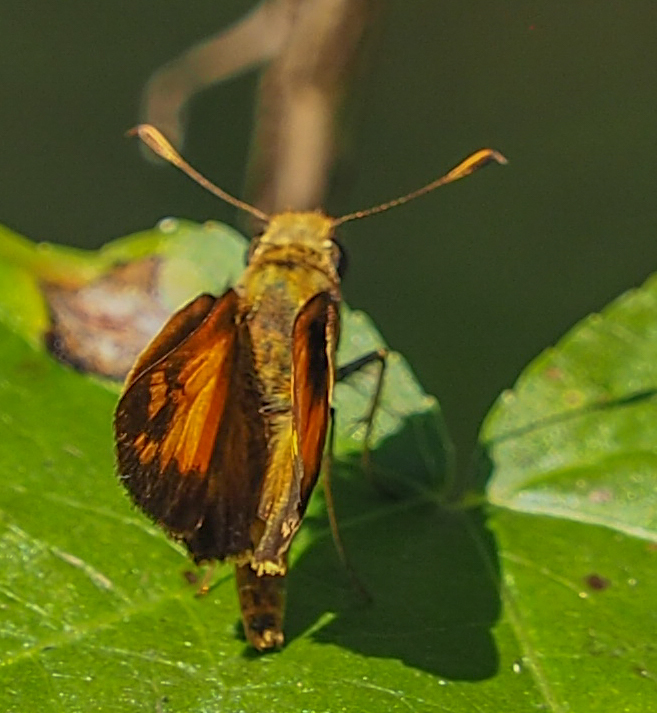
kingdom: Animalia
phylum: Arthropoda
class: Insecta
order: Lepidoptera
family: Hesperiidae
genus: Lon
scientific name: Lon zabulon
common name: Zabulon skipper
